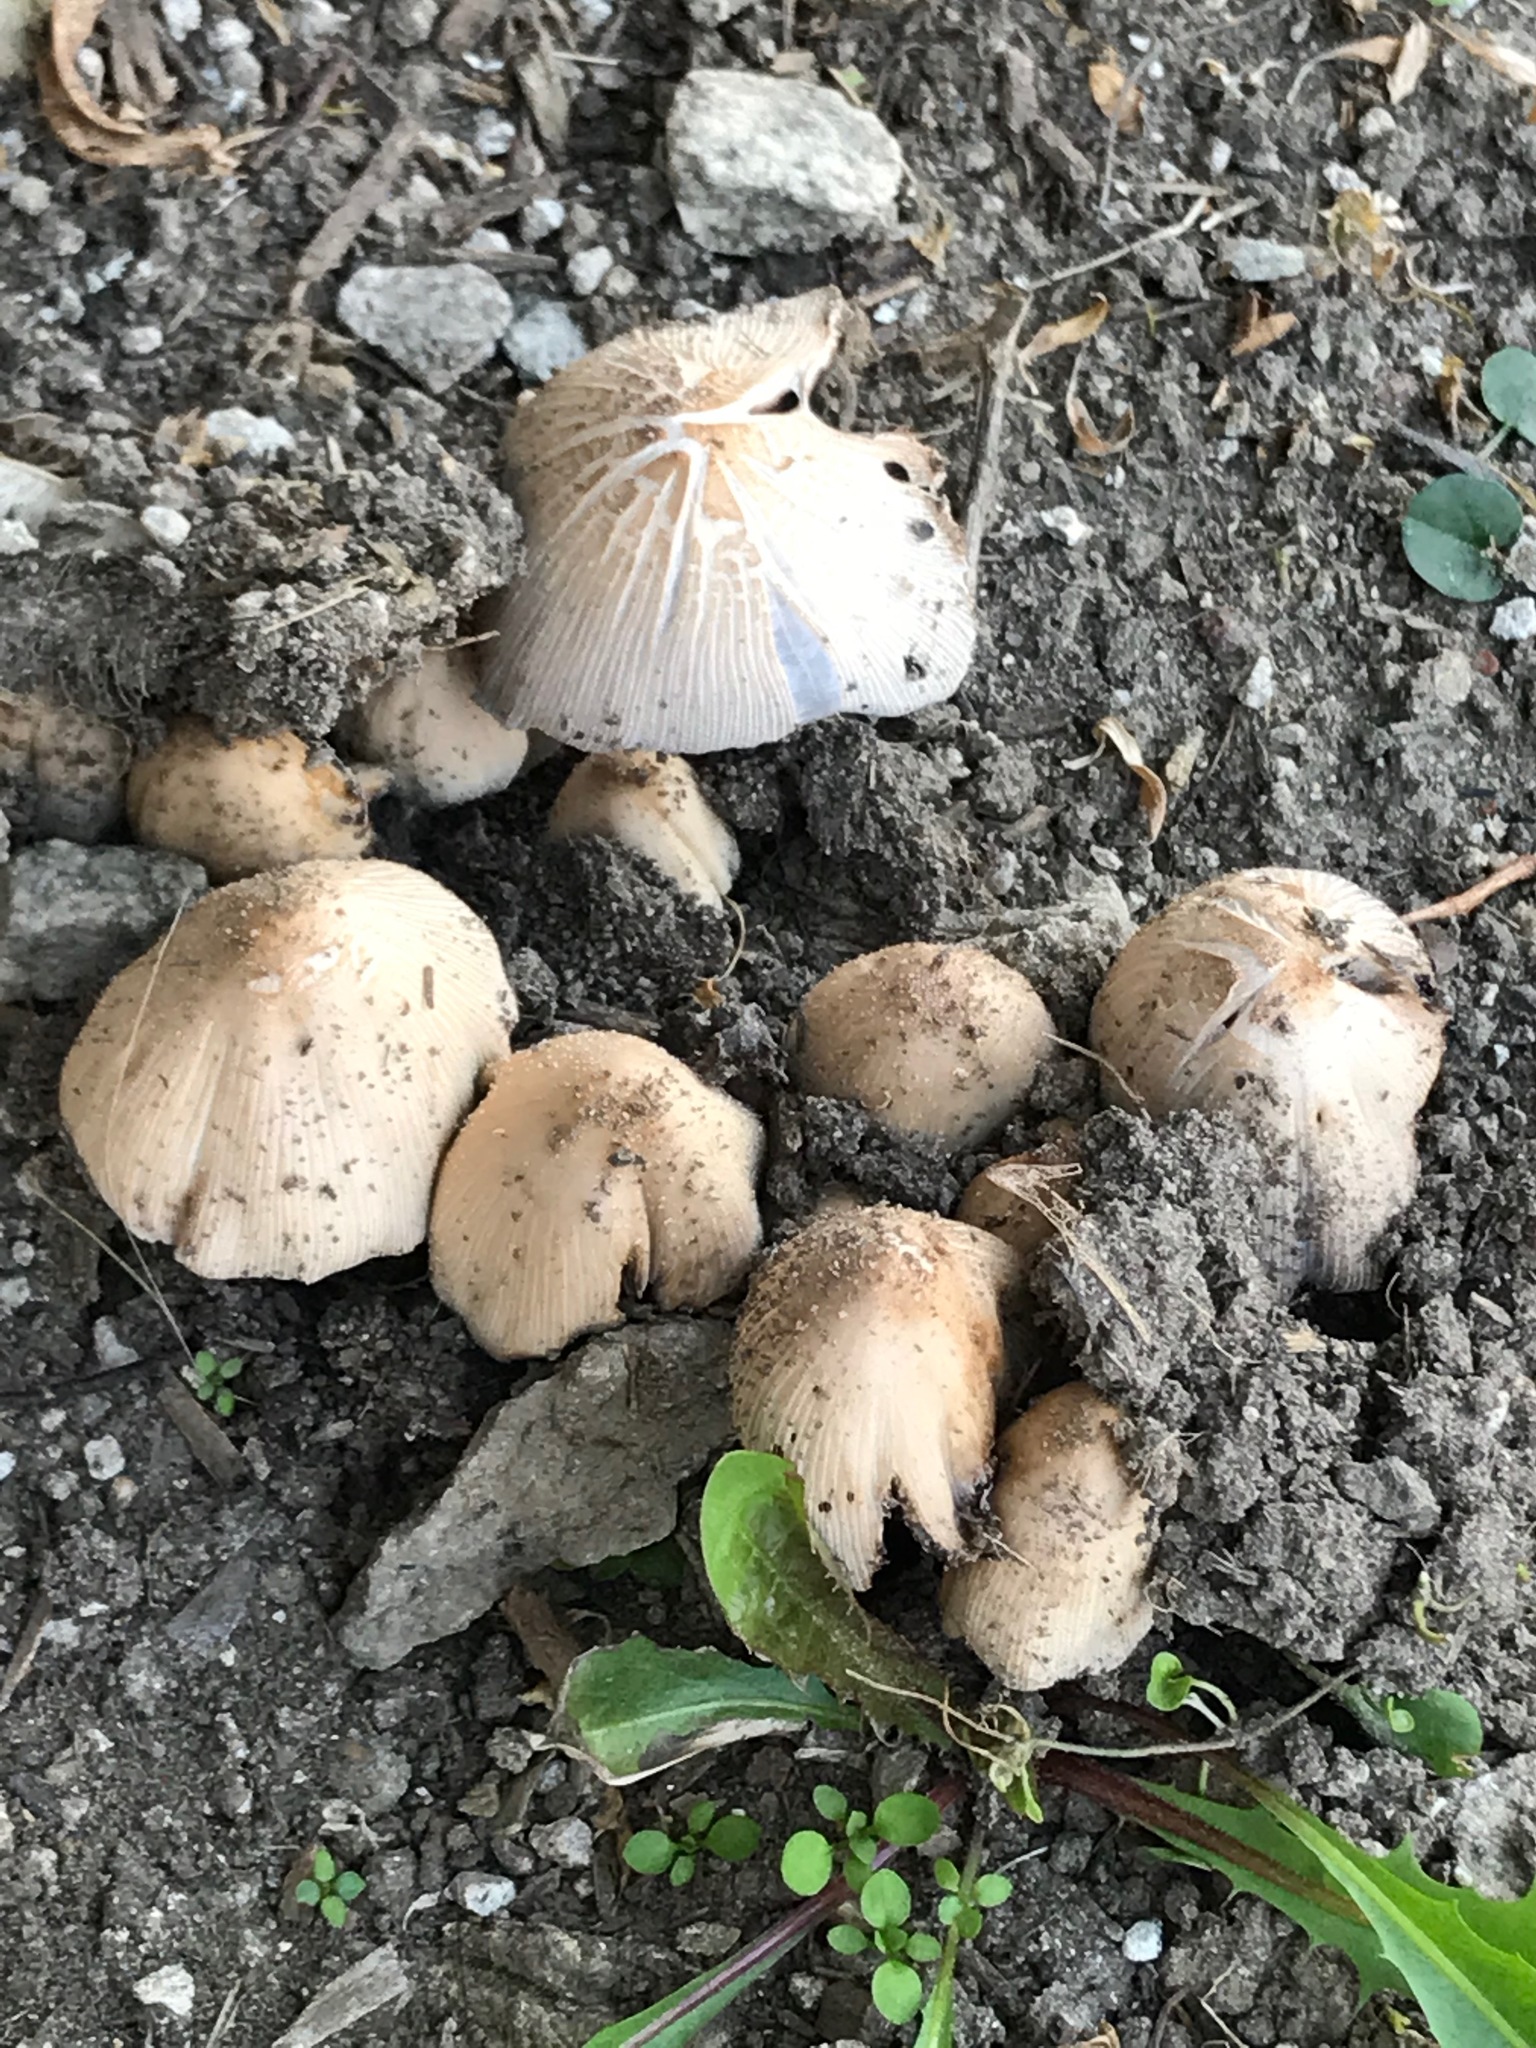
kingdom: Fungi
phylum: Basidiomycota
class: Agaricomycetes
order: Agaricales
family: Psathyrellaceae
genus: Coprinellus
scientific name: Coprinellus micaceus
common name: Glistening ink-cap
